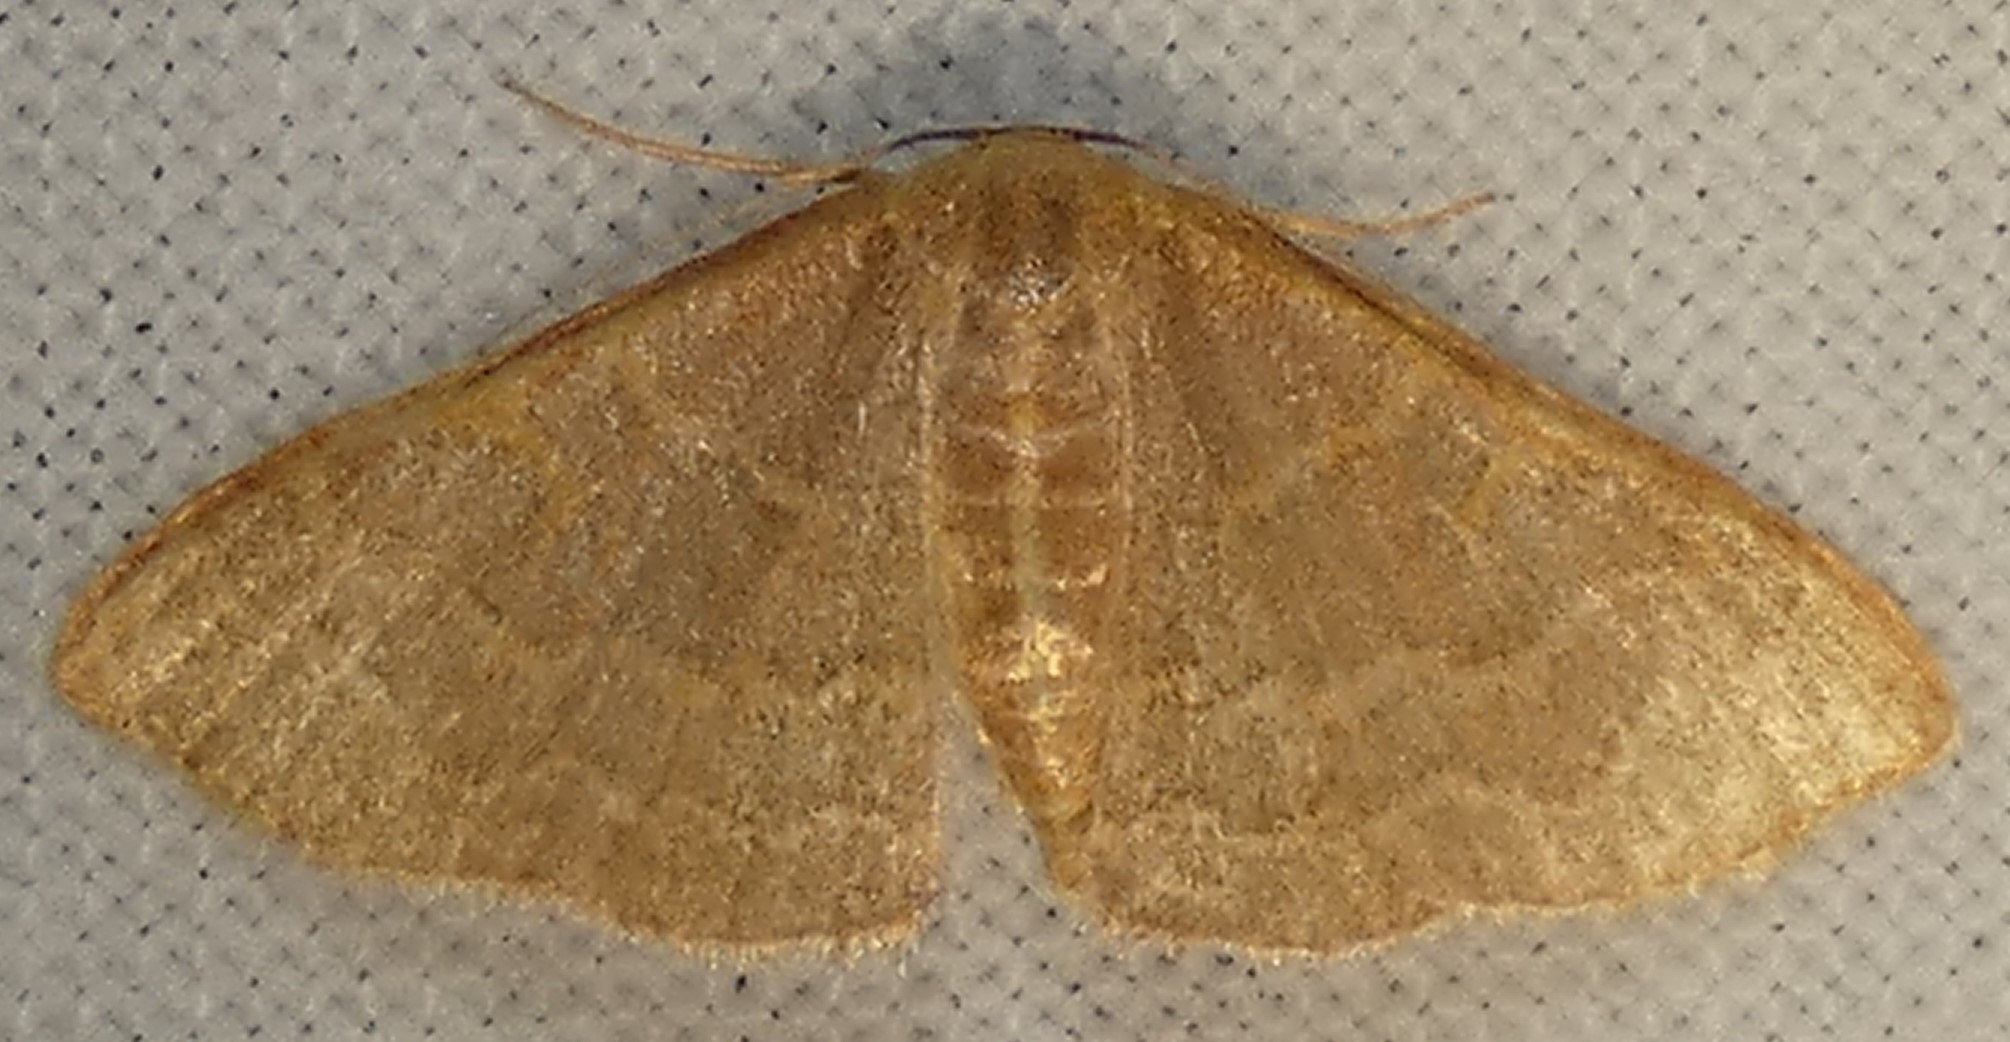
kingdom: Animalia
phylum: Arthropoda
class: Insecta
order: Lepidoptera
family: Geometridae
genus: Leptostales
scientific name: Leptostales pannaria
